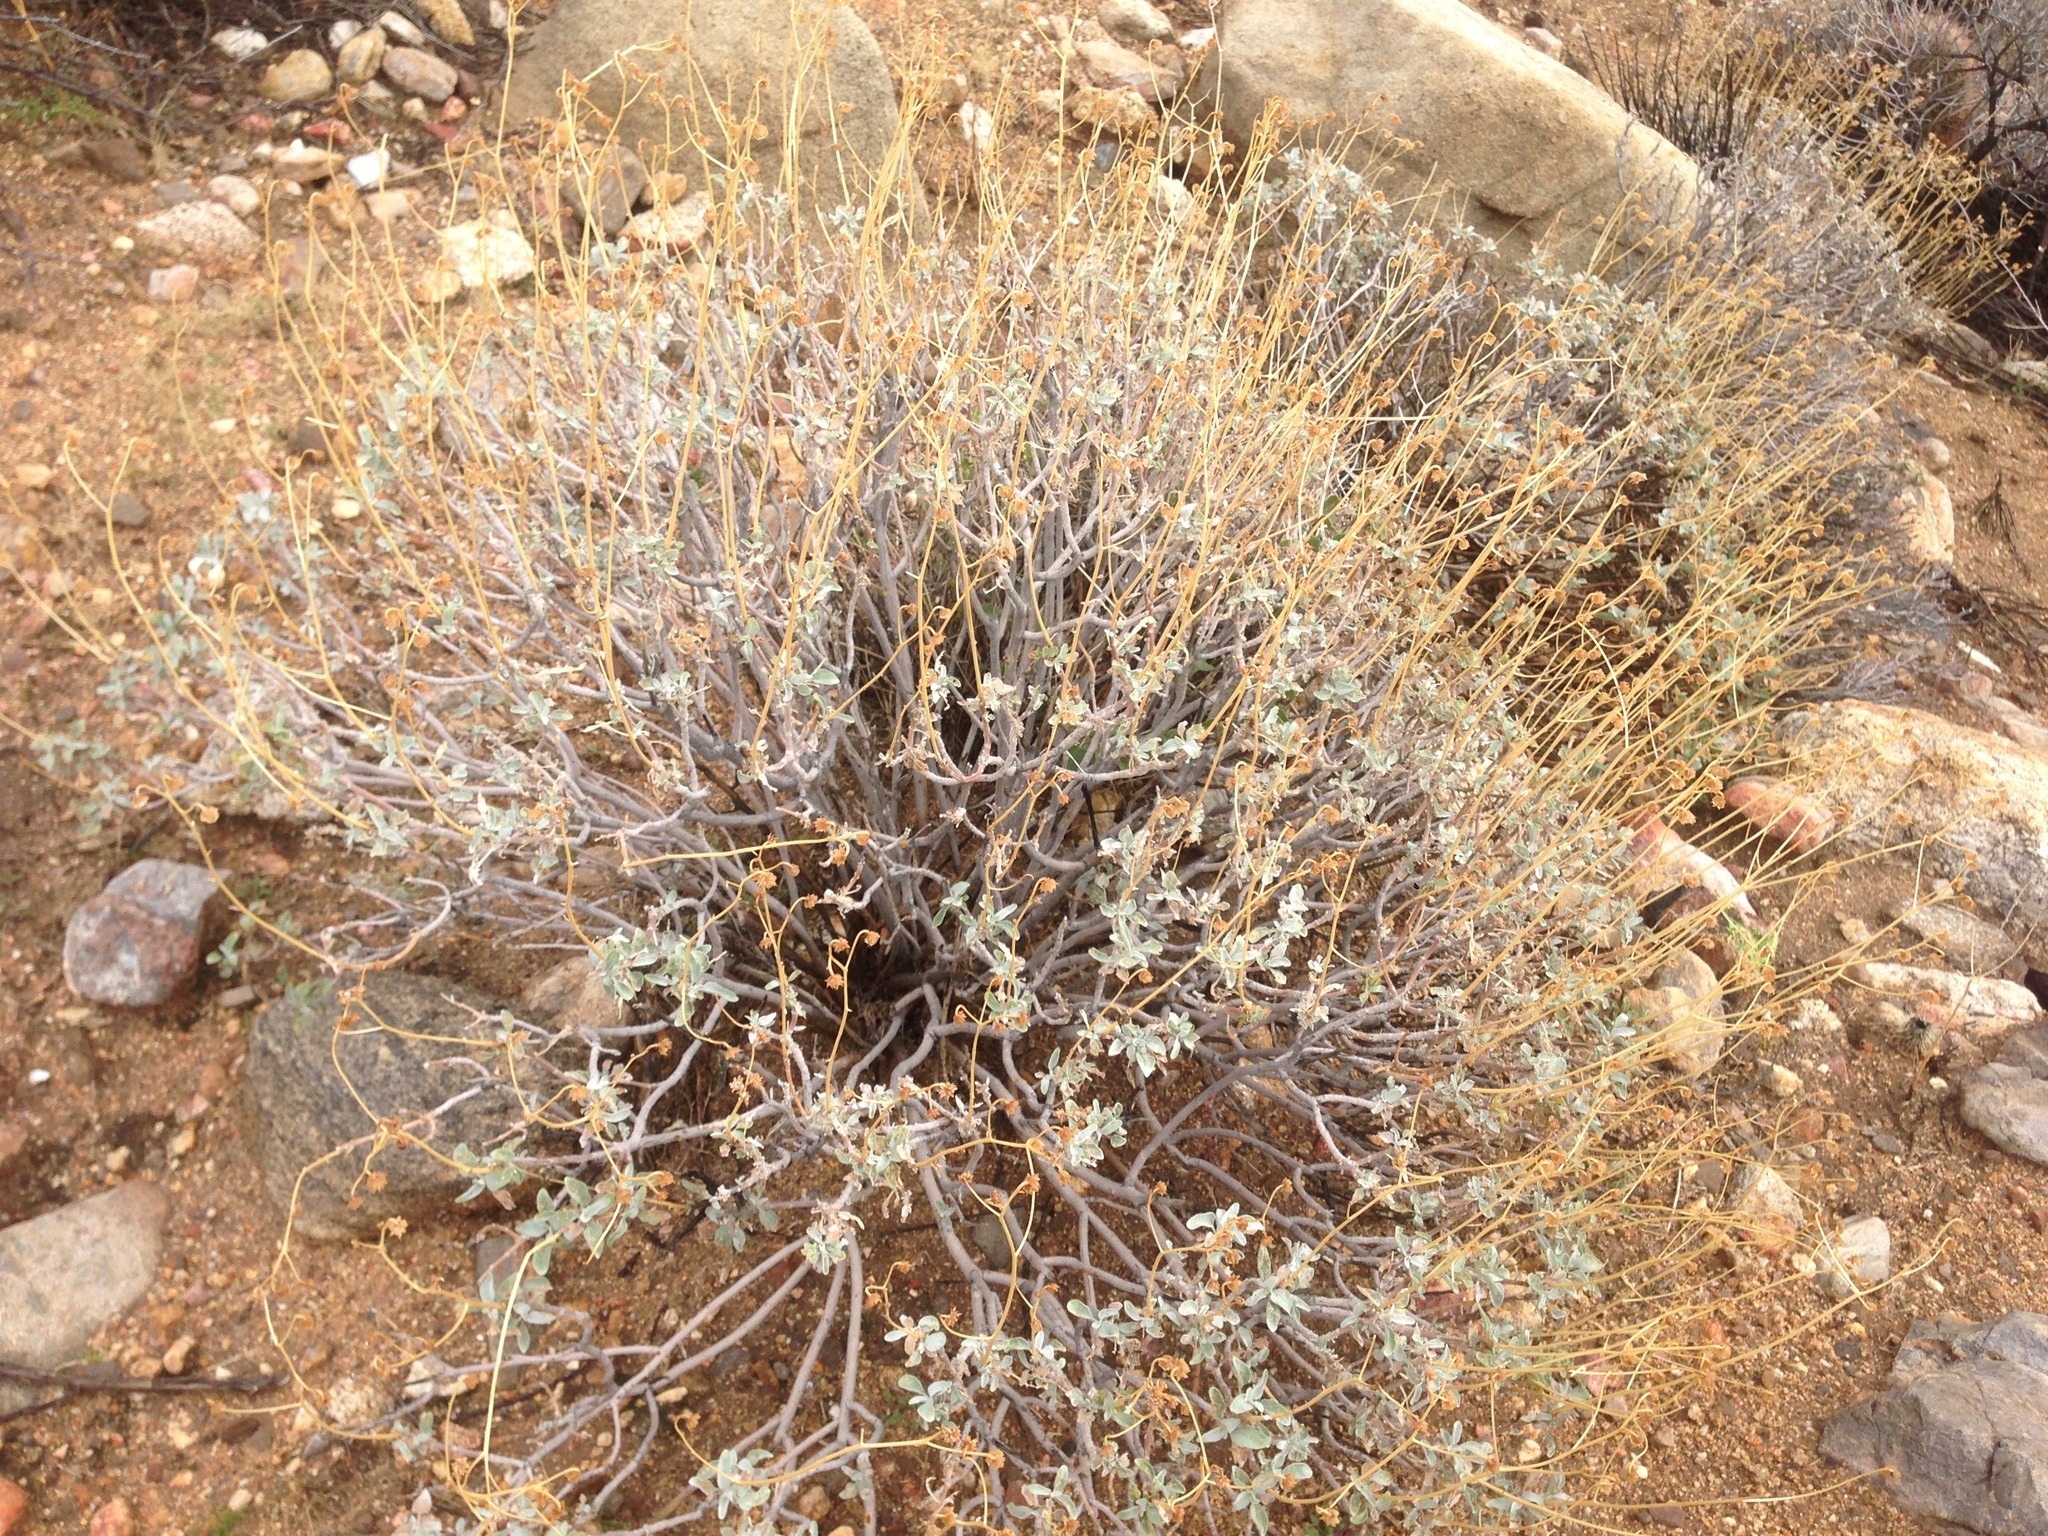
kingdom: Plantae
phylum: Tracheophyta
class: Magnoliopsida
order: Asterales
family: Asteraceae
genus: Encelia
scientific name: Encelia farinosa
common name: Brittlebush
